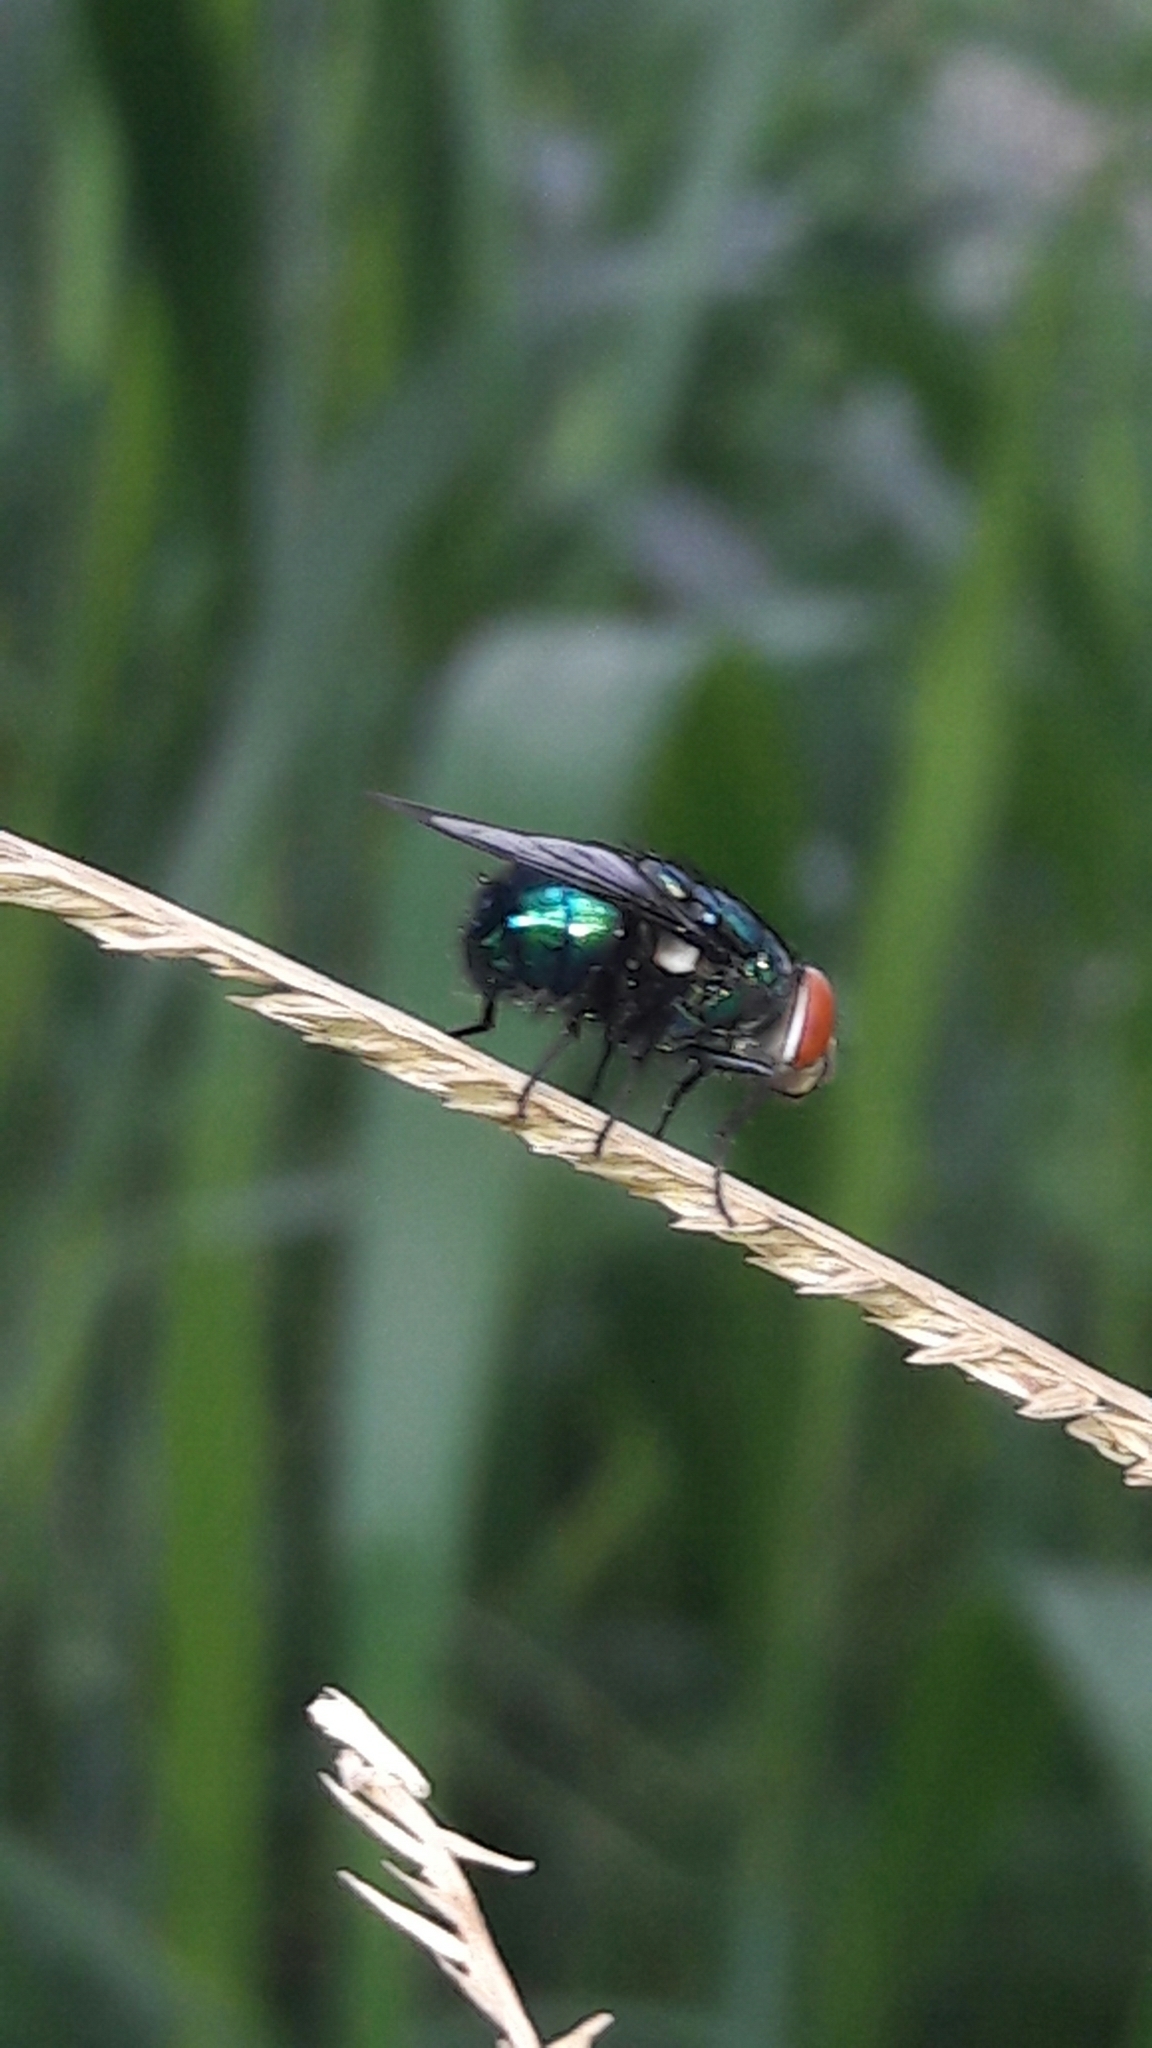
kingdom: Animalia
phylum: Arthropoda
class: Insecta
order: Diptera
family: Calliphoridae
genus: Lucilia
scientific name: Lucilia sericata
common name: Blow fly
